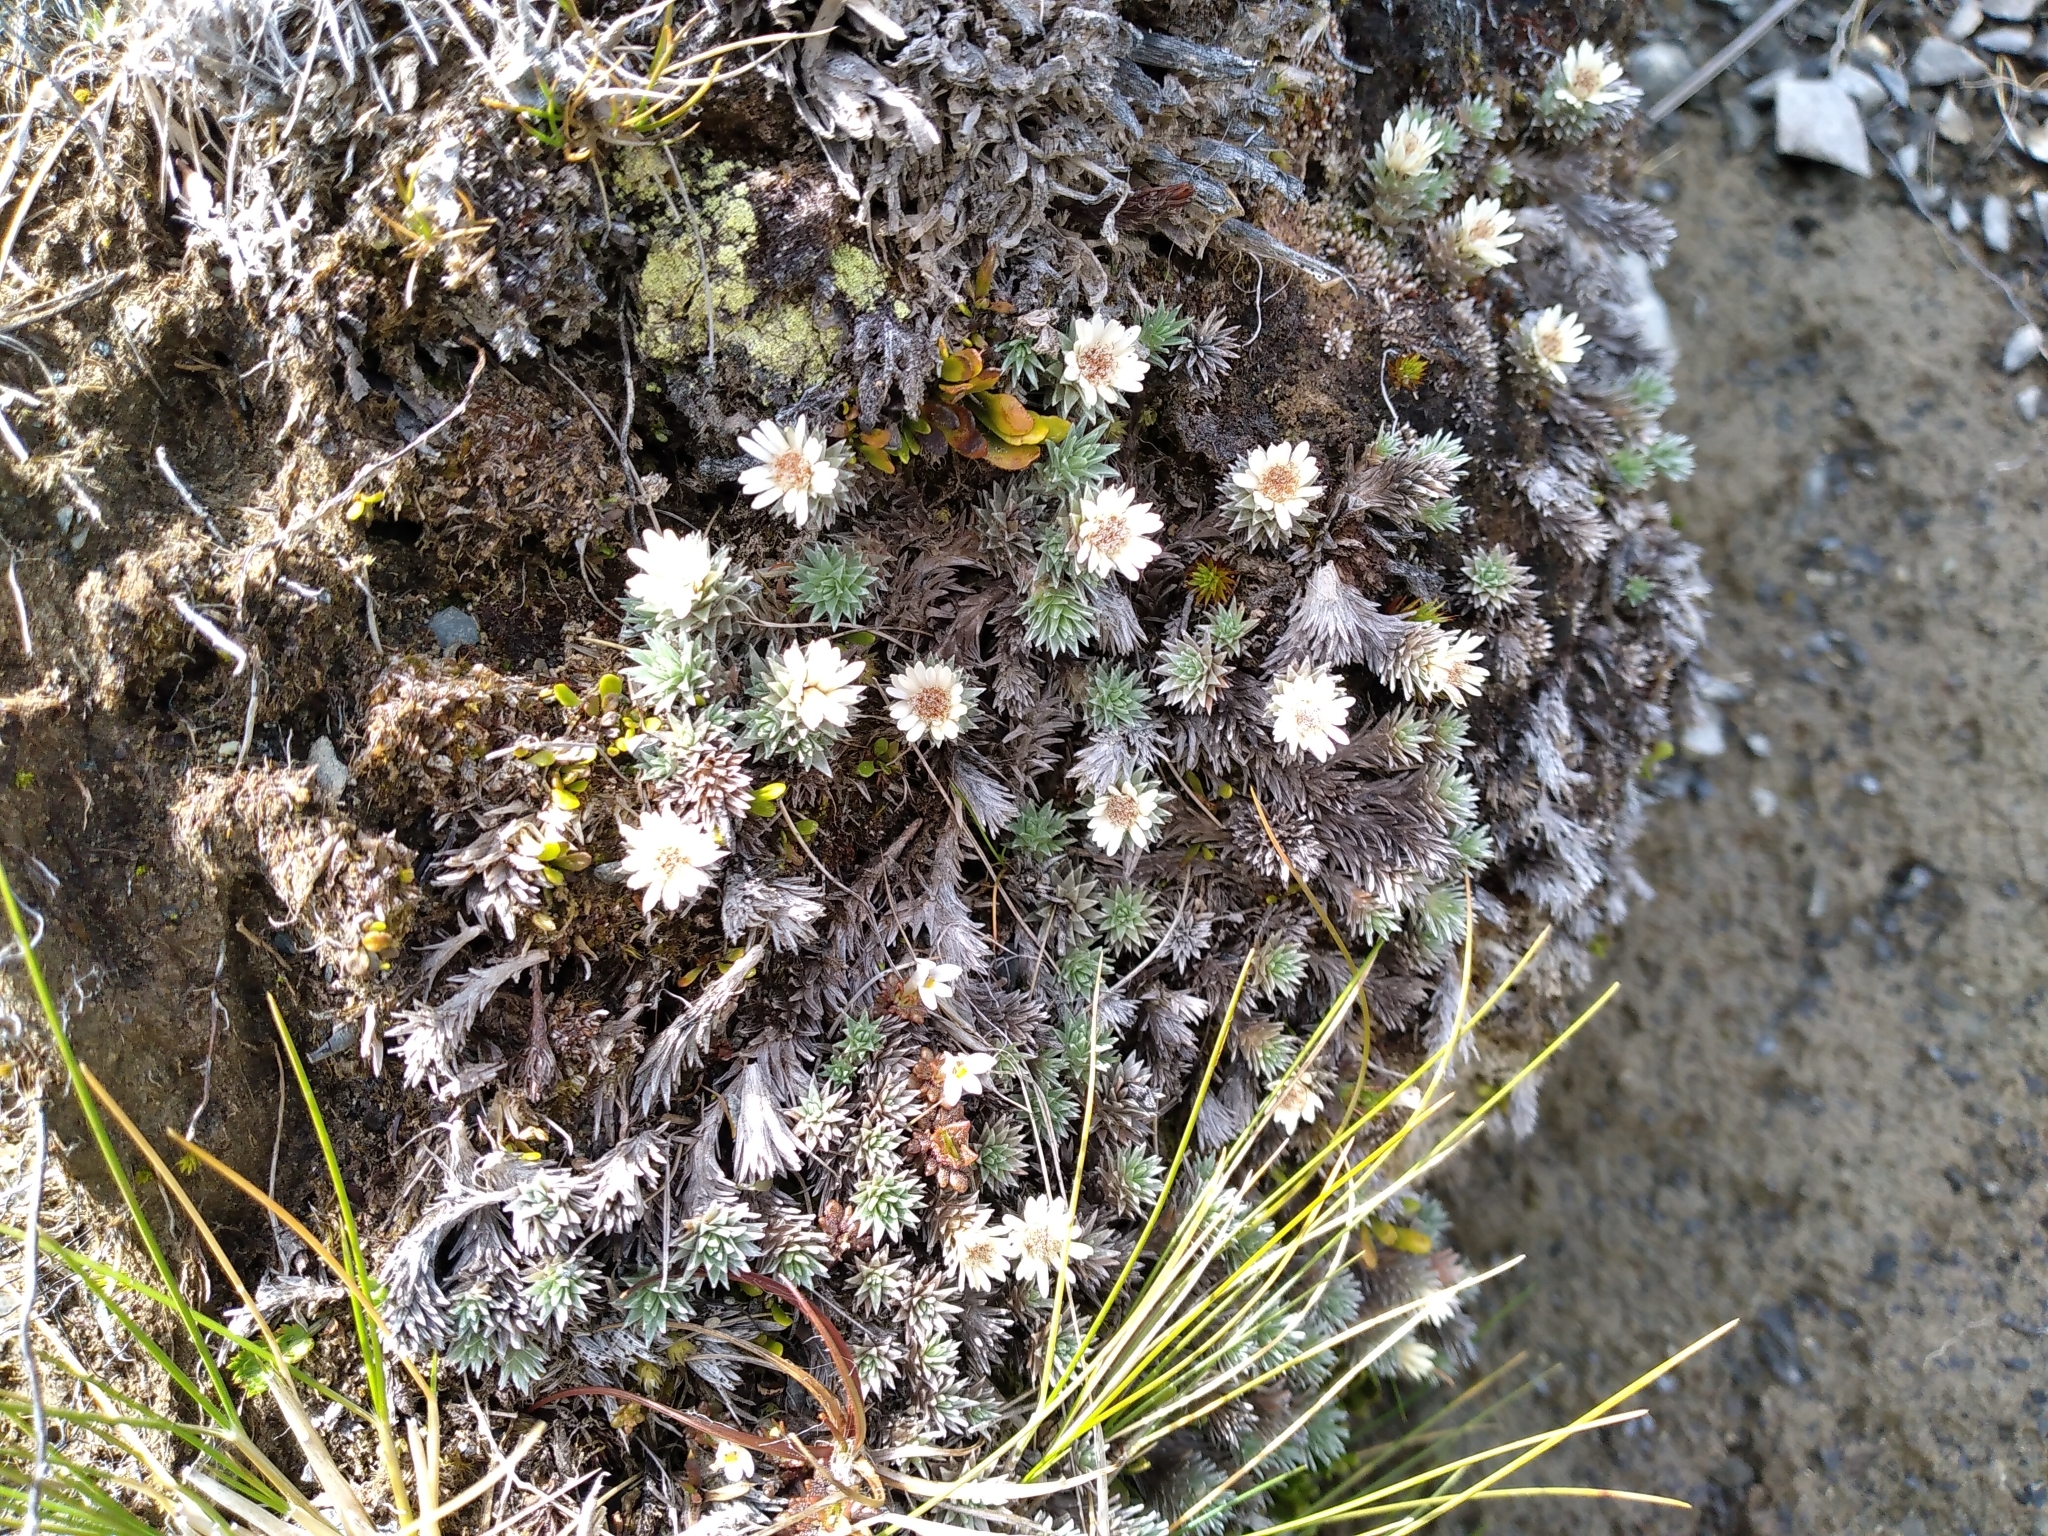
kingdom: Plantae
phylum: Tracheophyta
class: Magnoliopsida
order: Asterales
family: Asteraceae
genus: Raoulia
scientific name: Raoulia grandiflora
